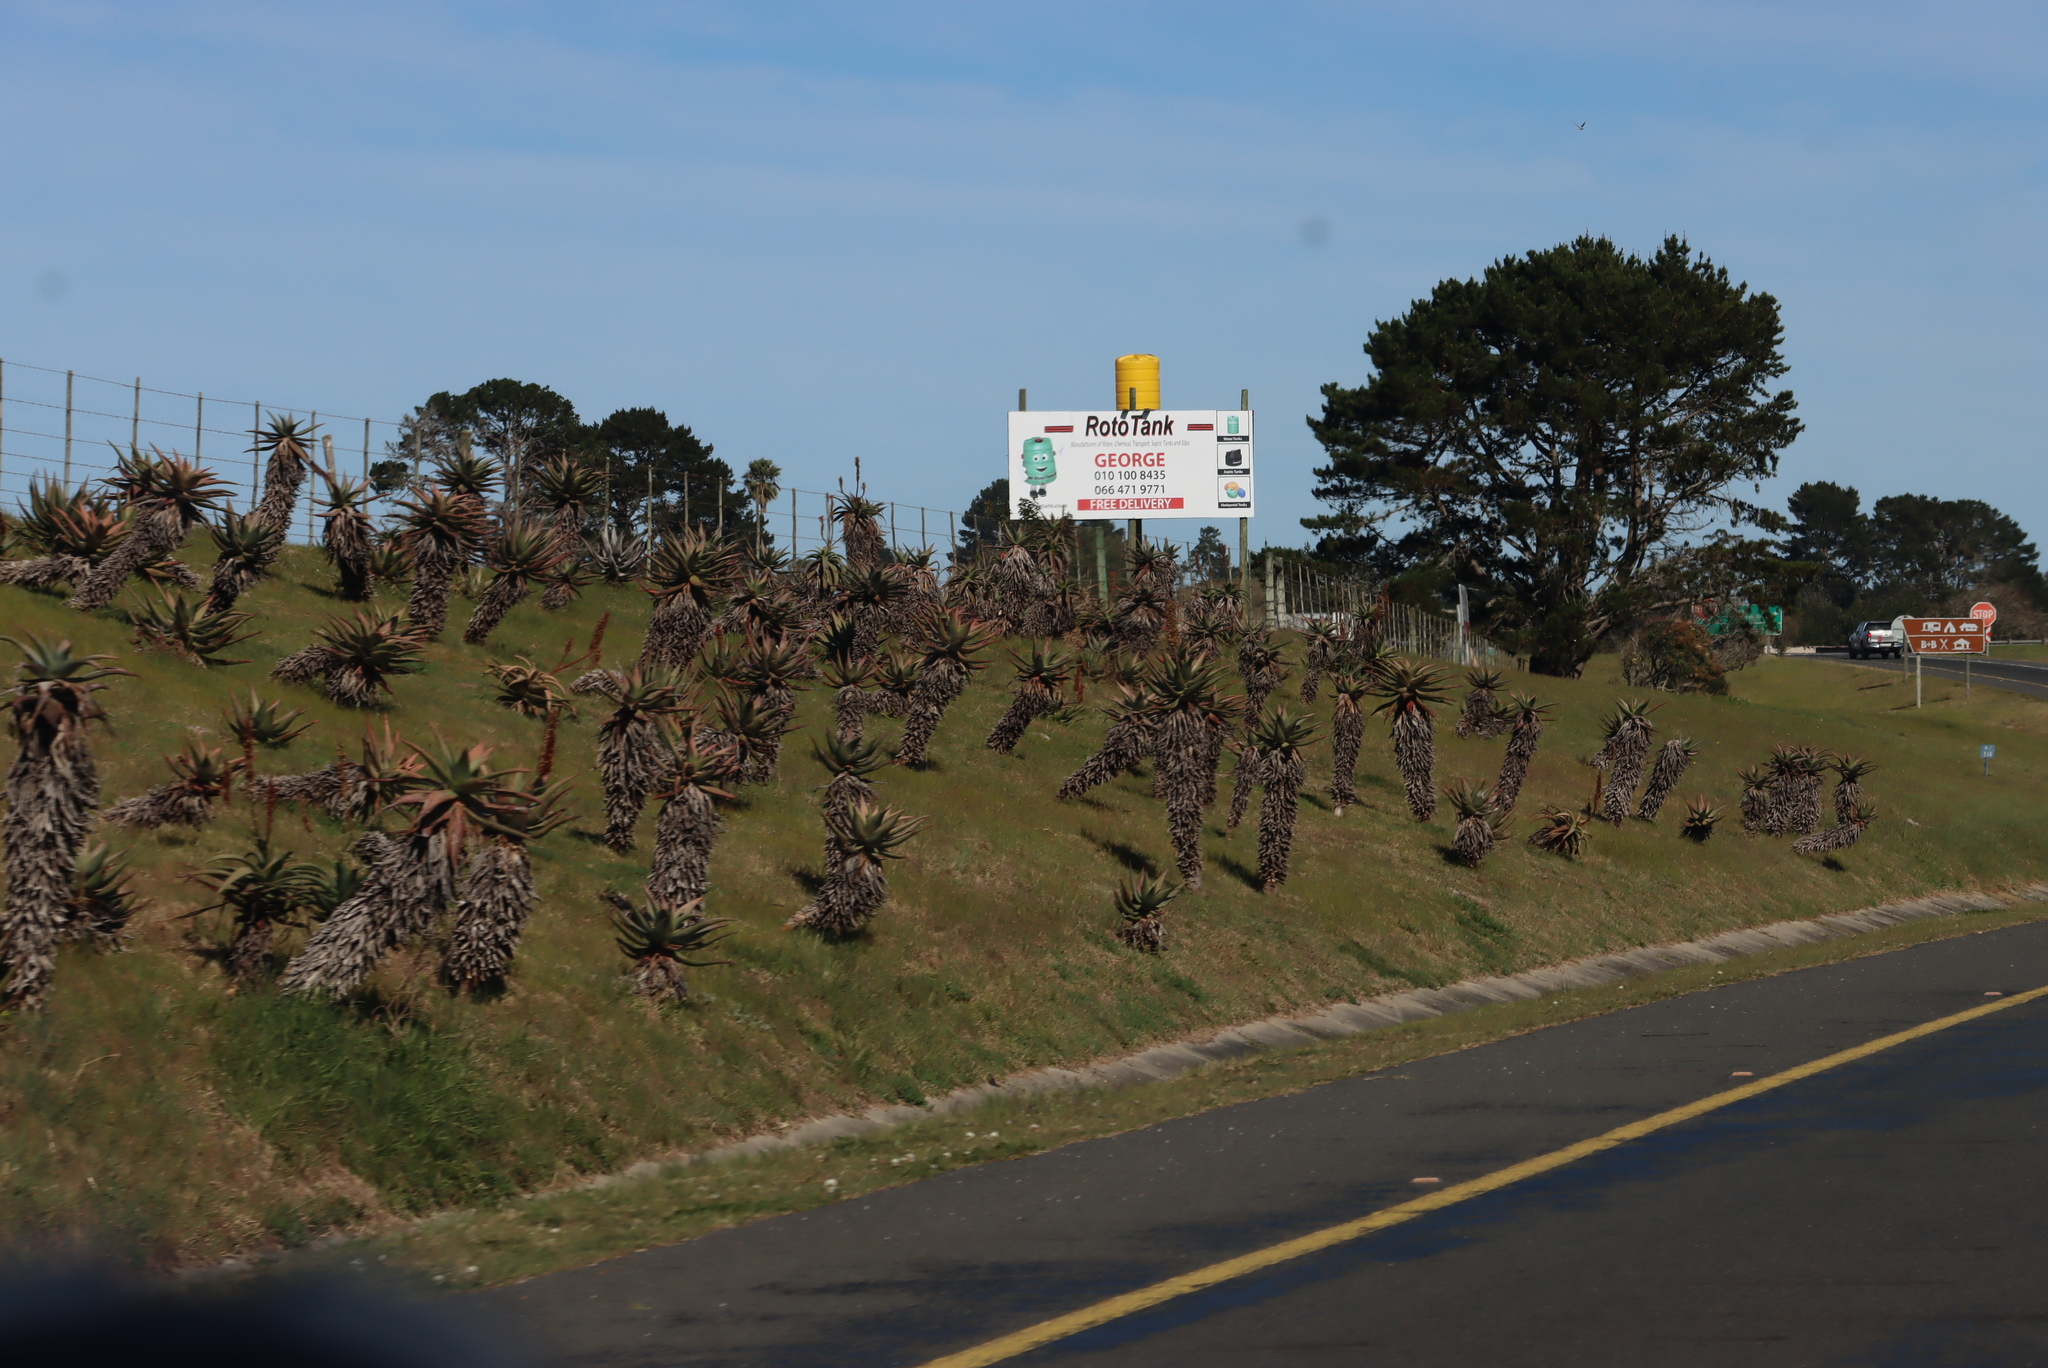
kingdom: Plantae
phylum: Tracheophyta
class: Liliopsida
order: Asparagales
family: Asphodelaceae
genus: Aloe
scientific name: Aloe ferox
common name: Bitter aloe
